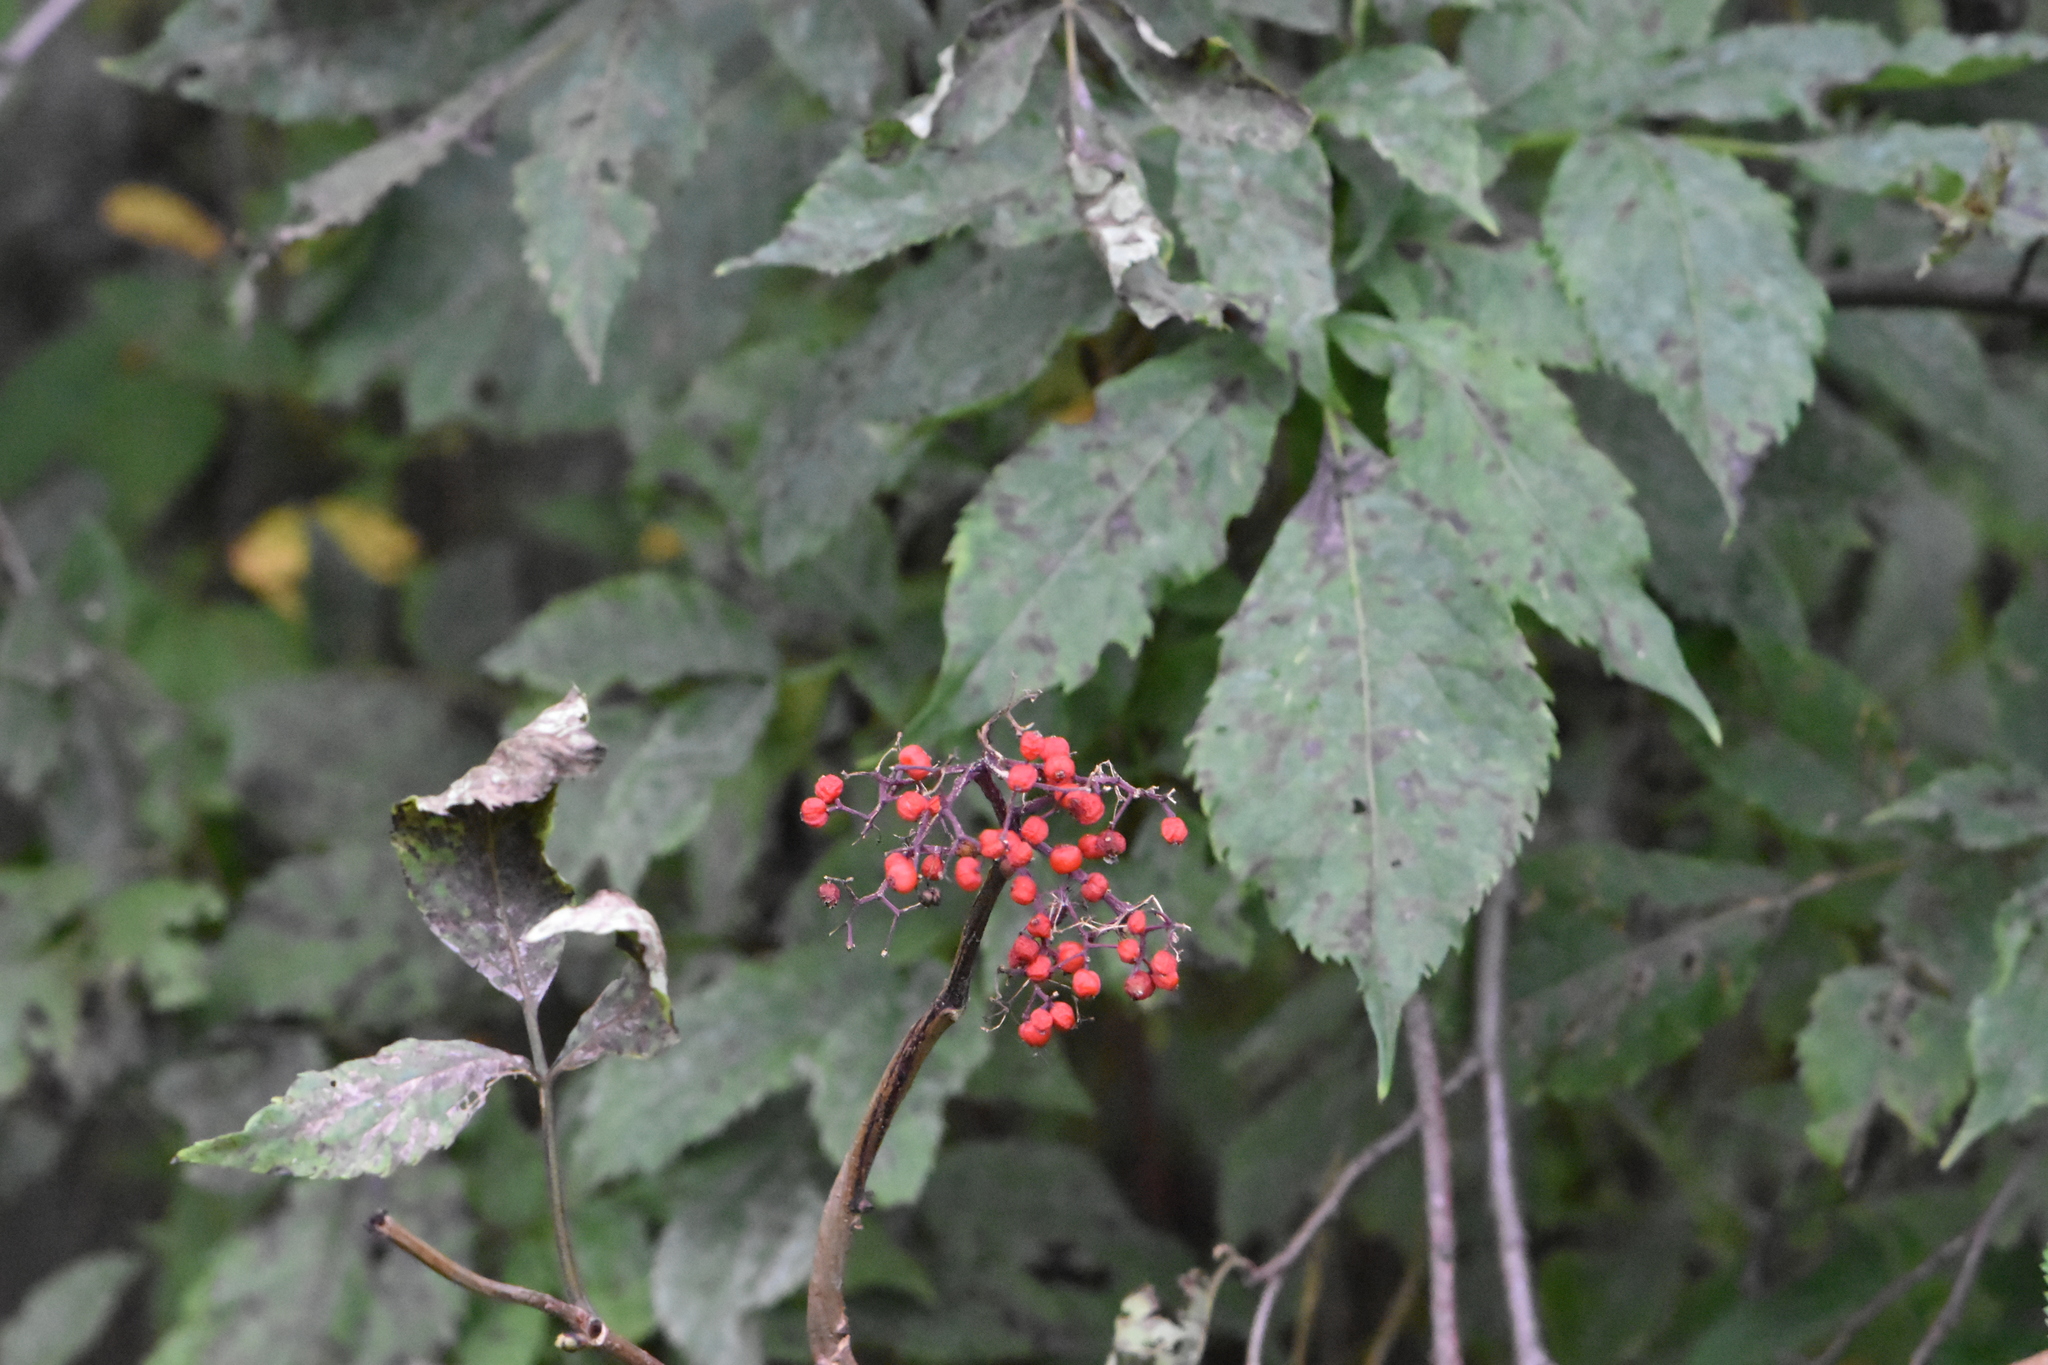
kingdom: Plantae
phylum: Tracheophyta
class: Magnoliopsida
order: Dipsacales
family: Viburnaceae
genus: Sambucus
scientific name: Sambucus racemosa
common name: Red-berried elder
